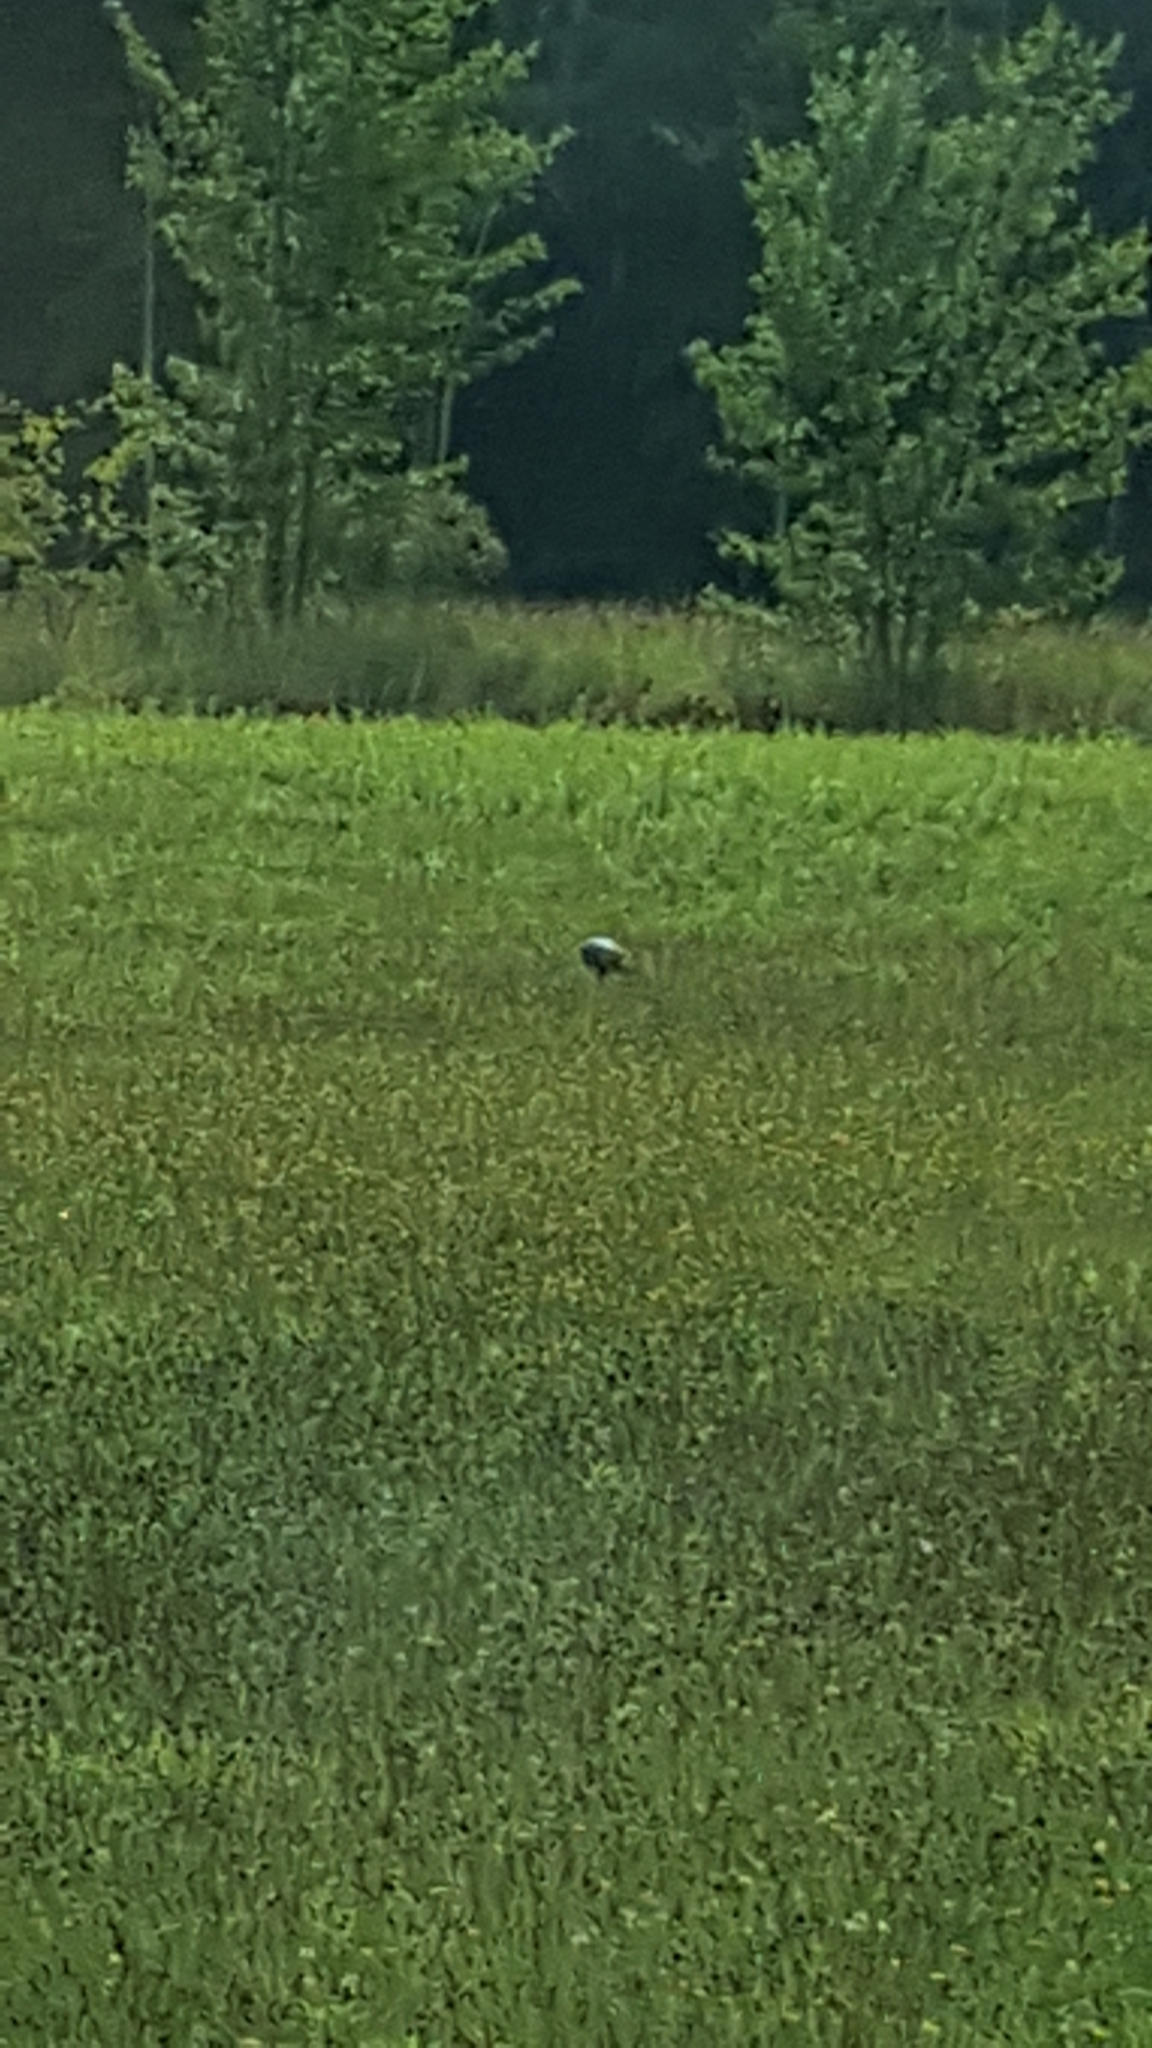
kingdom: Animalia
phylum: Chordata
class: Aves
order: Galliformes
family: Phasianidae
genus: Meleagris
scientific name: Meleagris gallopavo
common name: Wild turkey
